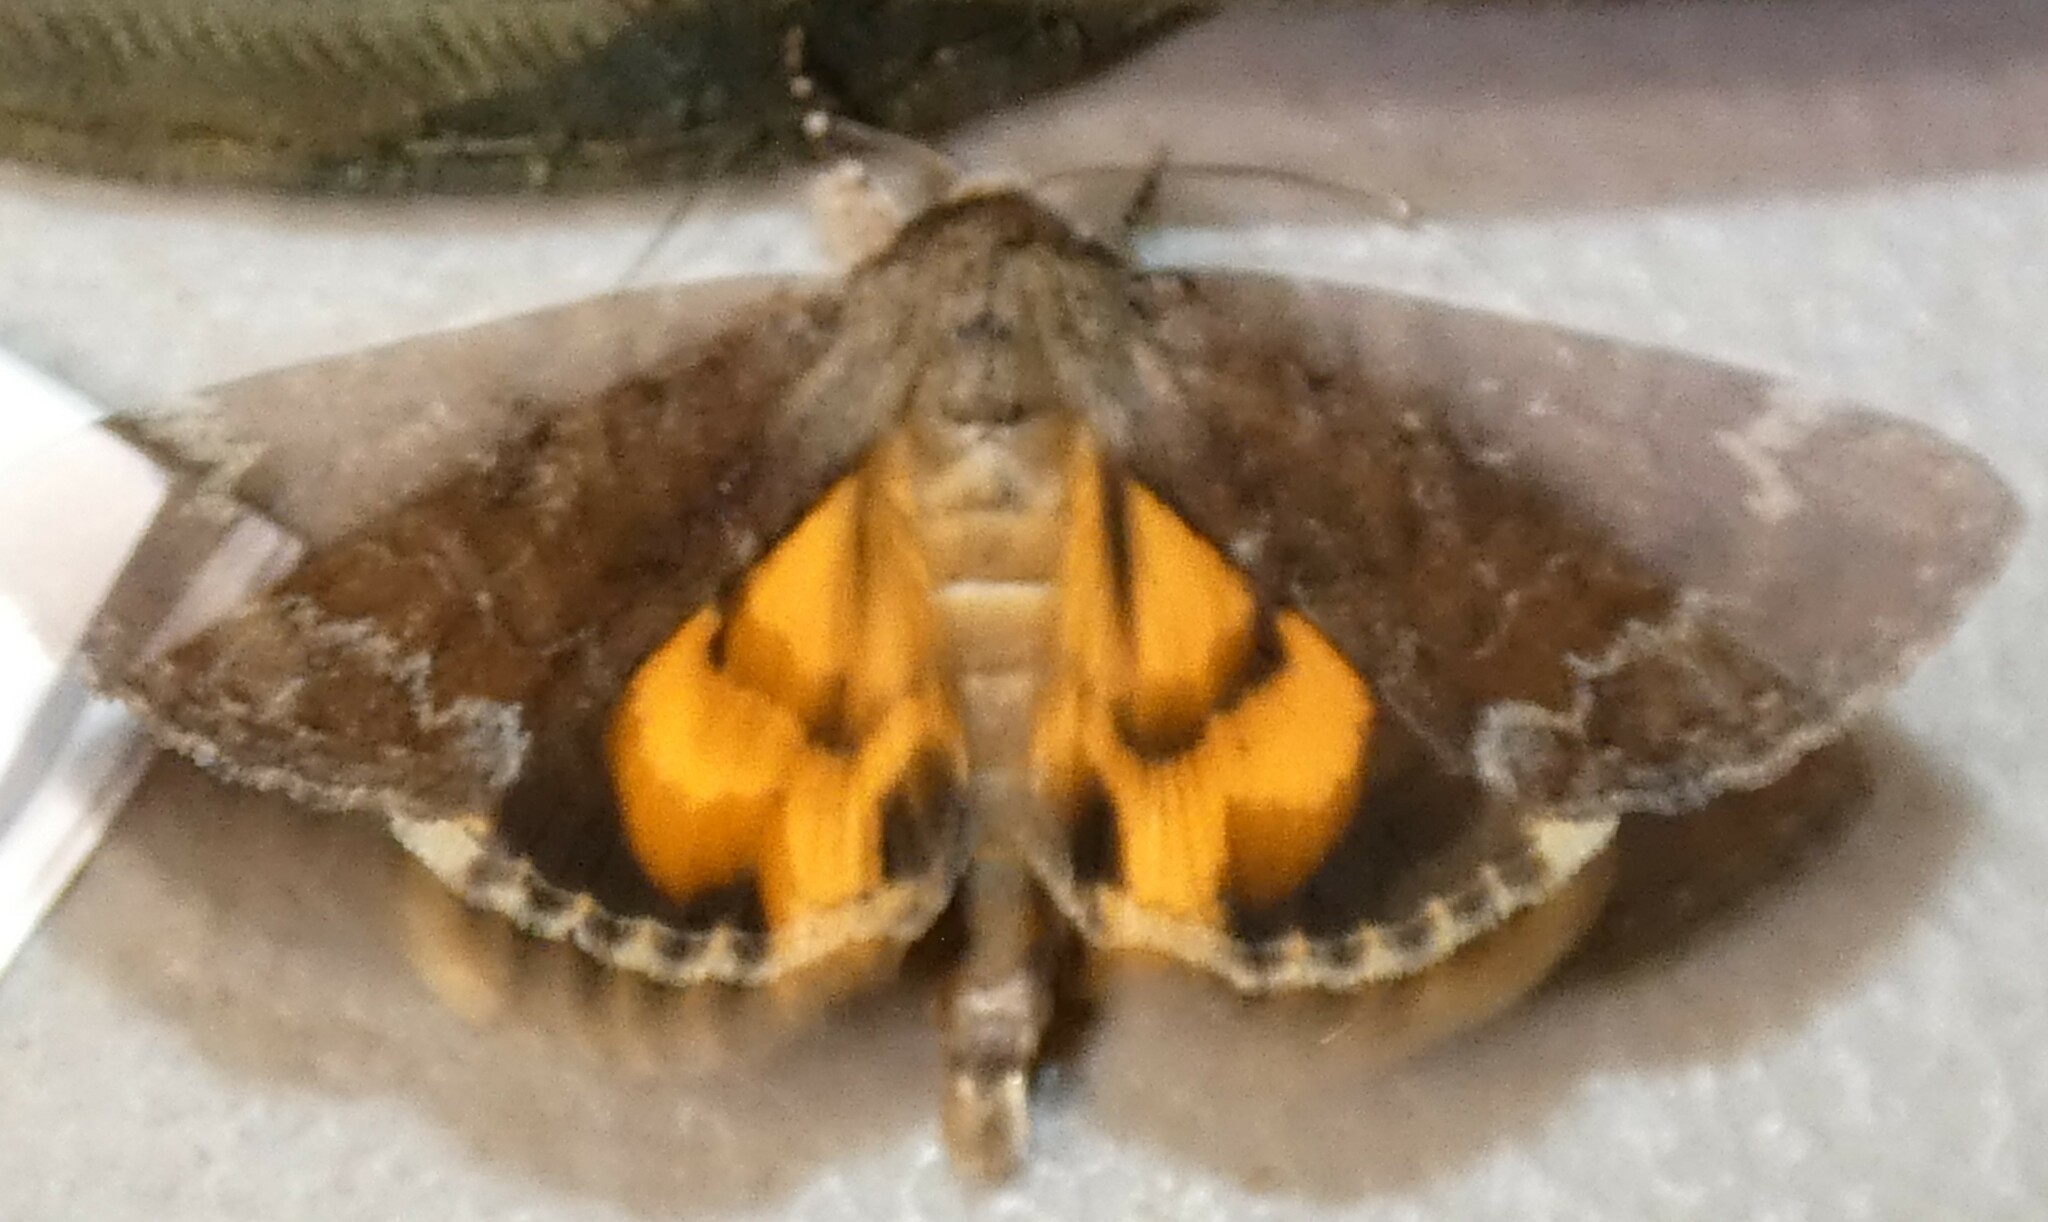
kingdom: Animalia
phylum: Arthropoda
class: Insecta
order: Lepidoptera
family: Erebidae
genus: Catocala
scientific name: Catocala micronympha
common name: Little nymph underwing
